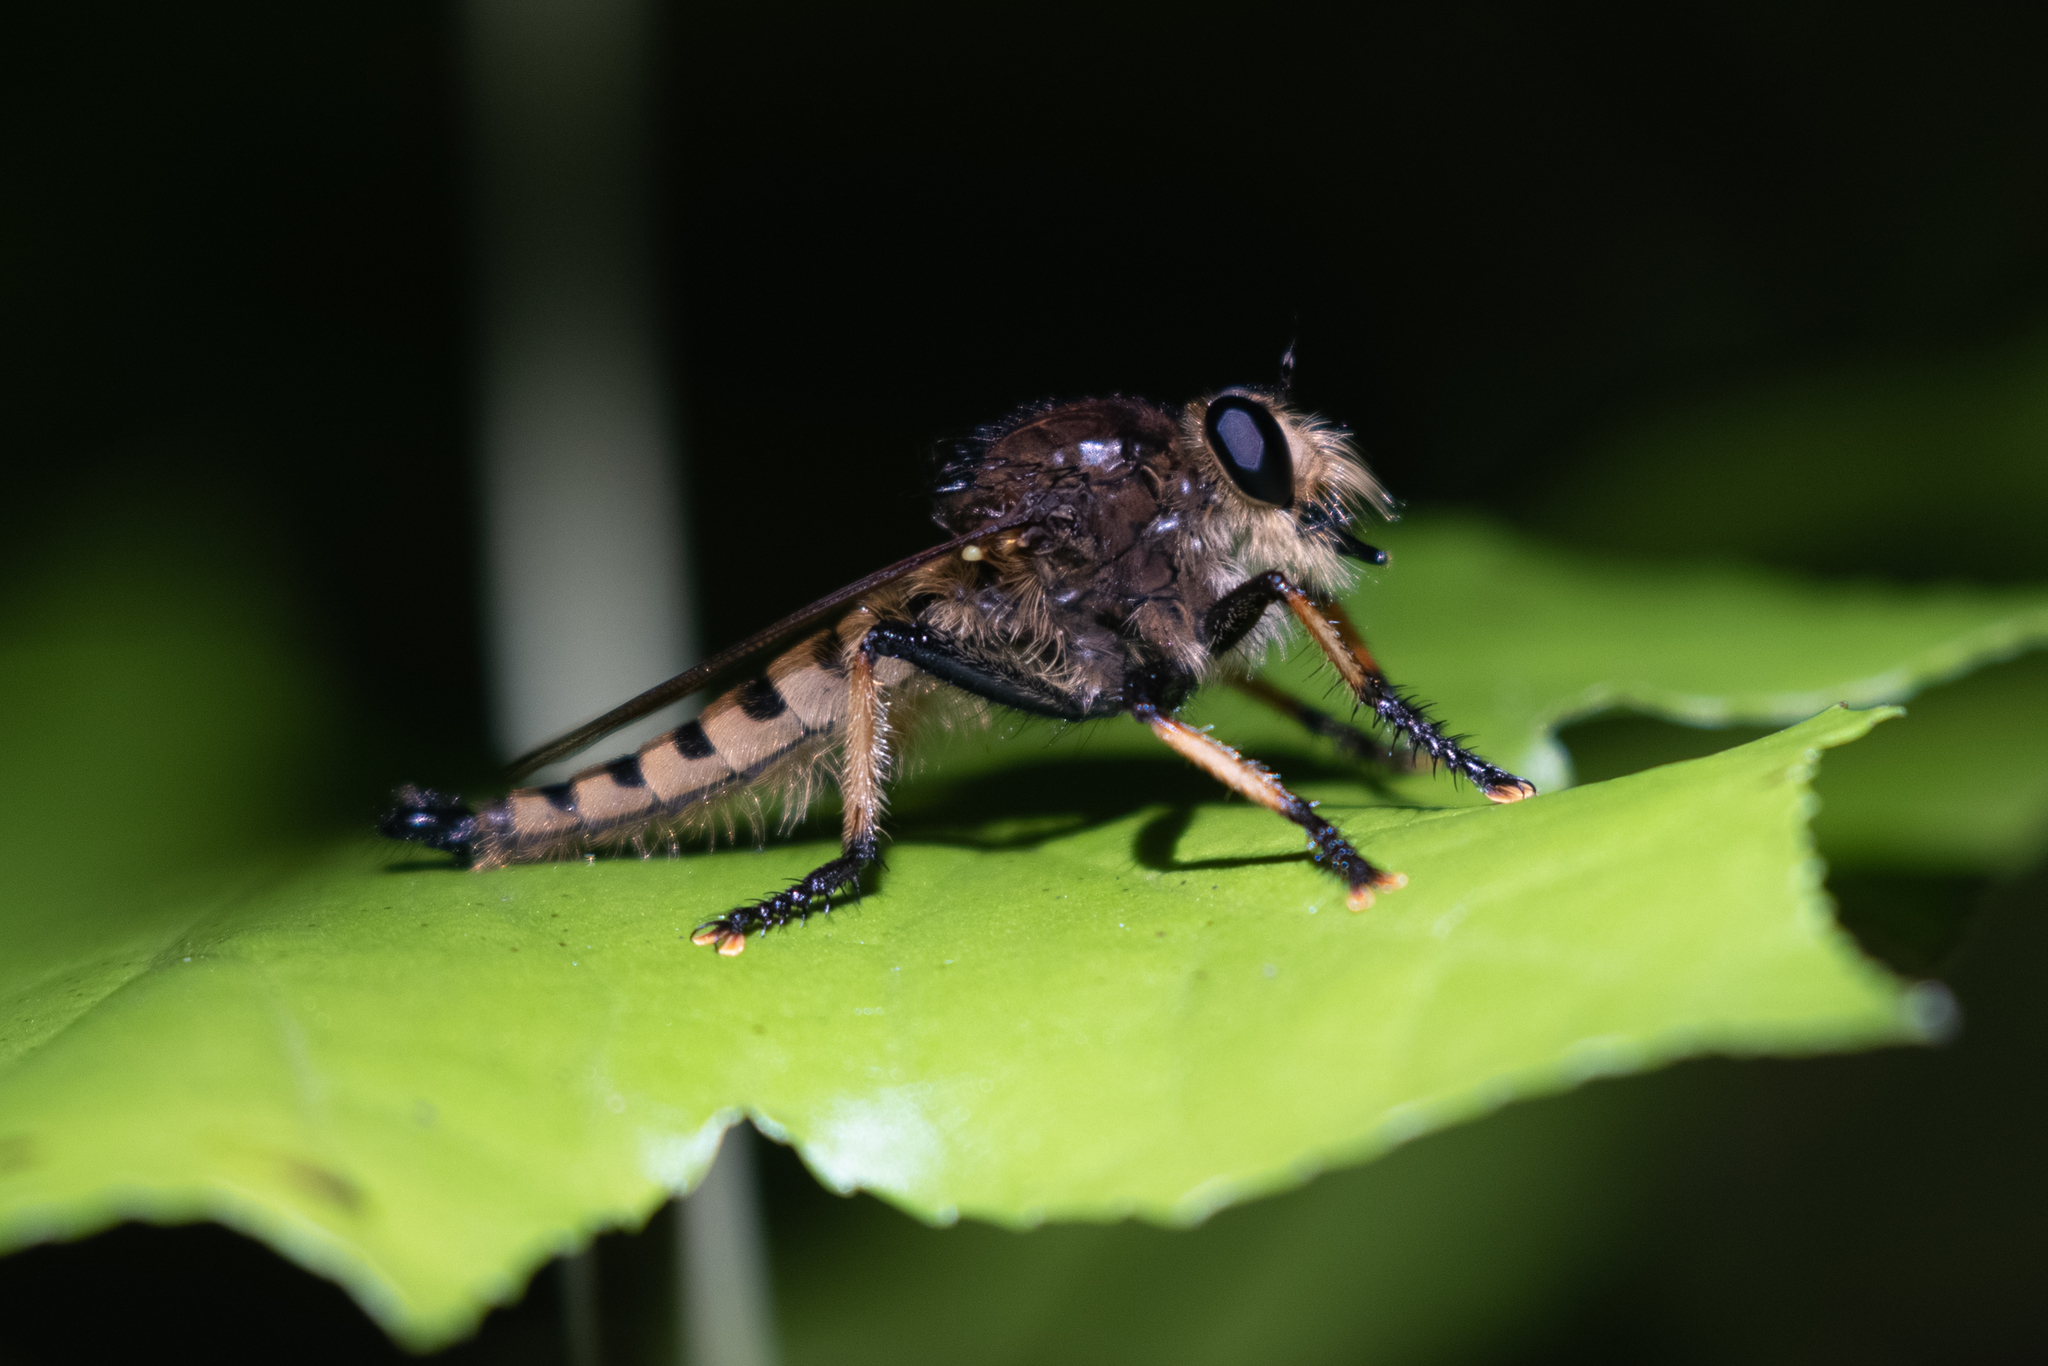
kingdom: Animalia
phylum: Arthropoda
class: Insecta
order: Diptera
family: Asilidae
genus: Promachus
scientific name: Promachus rufipes
